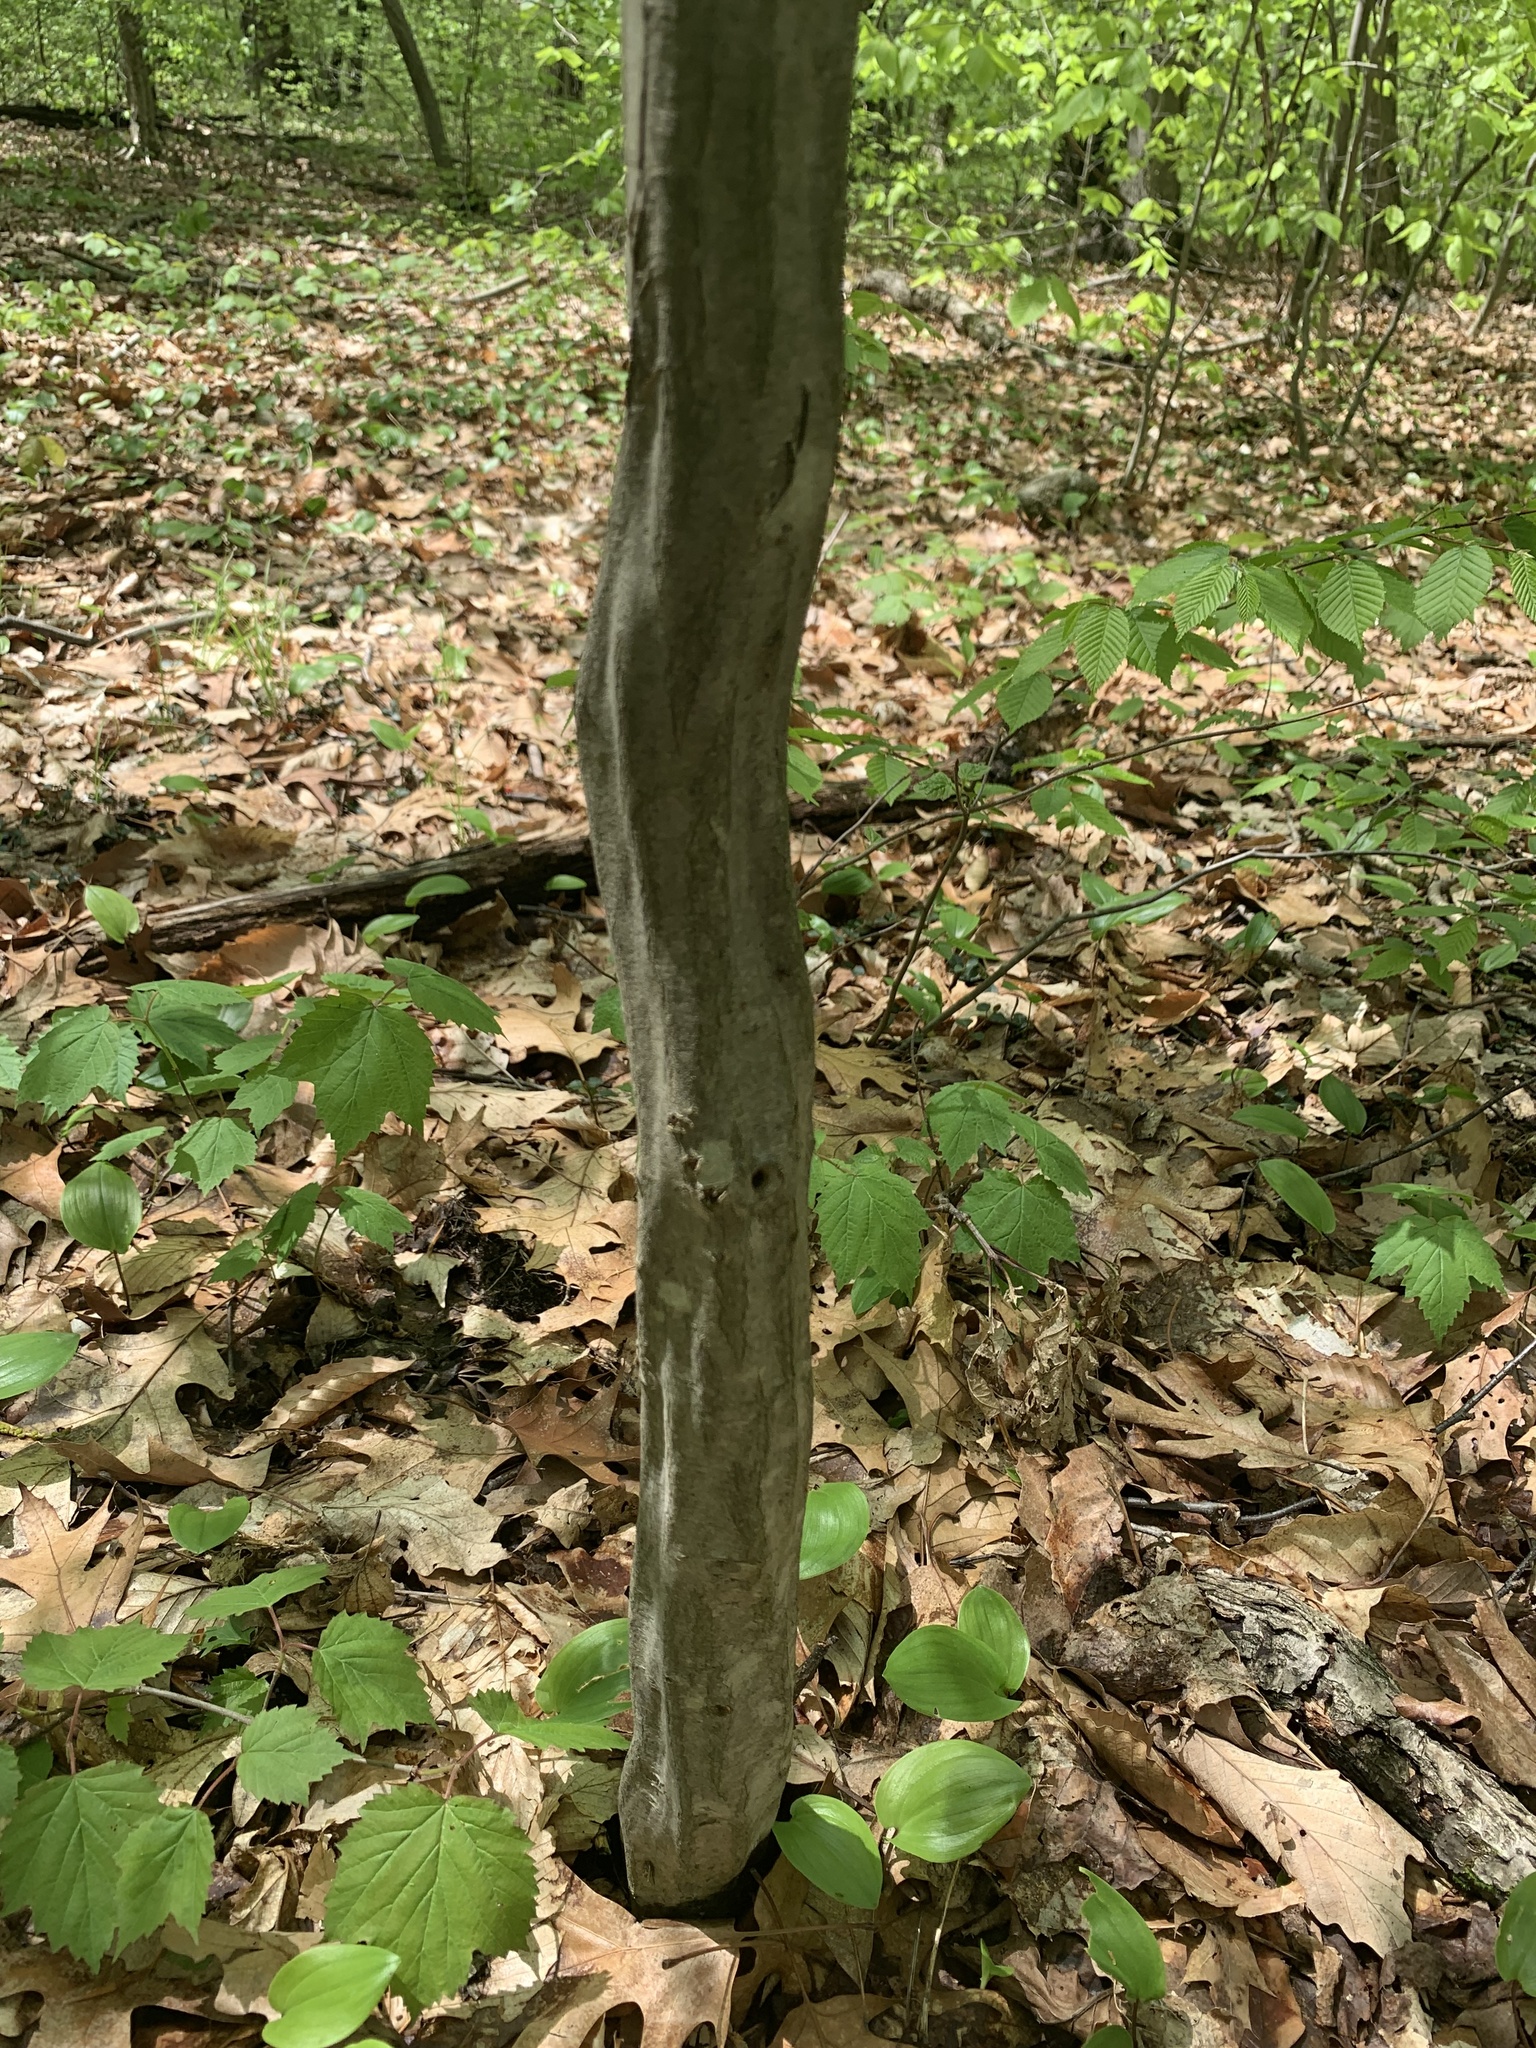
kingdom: Plantae
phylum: Tracheophyta
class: Magnoliopsida
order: Fagales
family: Betulaceae
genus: Carpinus
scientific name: Carpinus caroliniana
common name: American hornbeam
